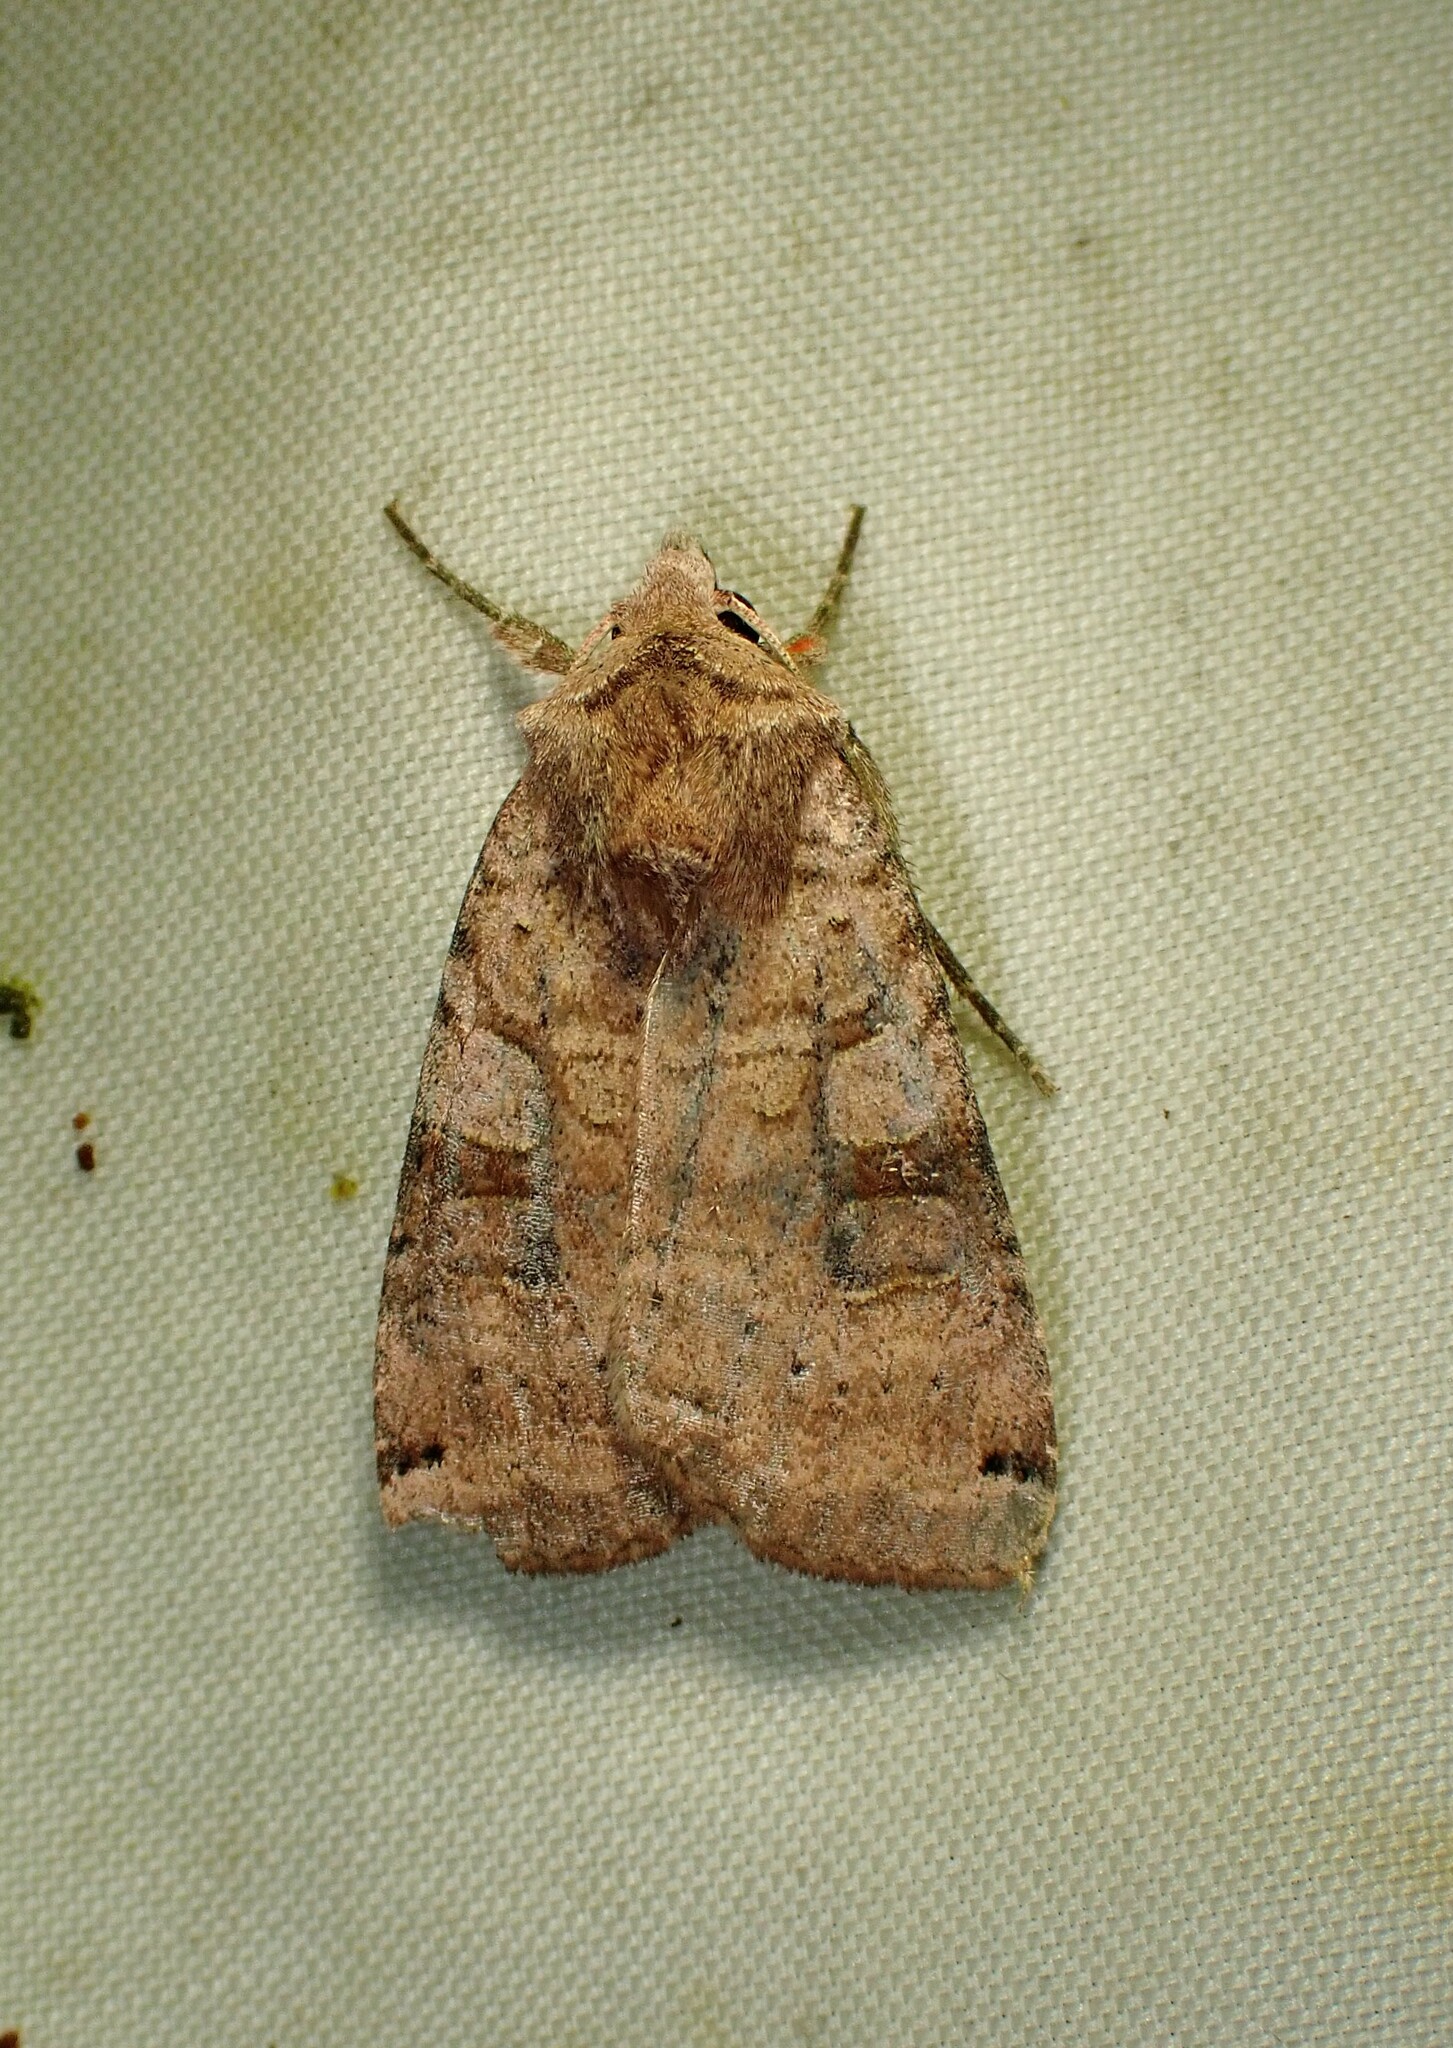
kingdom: Animalia
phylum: Arthropoda
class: Insecta
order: Lepidoptera
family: Noctuidae
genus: Xestia
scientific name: Xestia smithii
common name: Smith's dart
